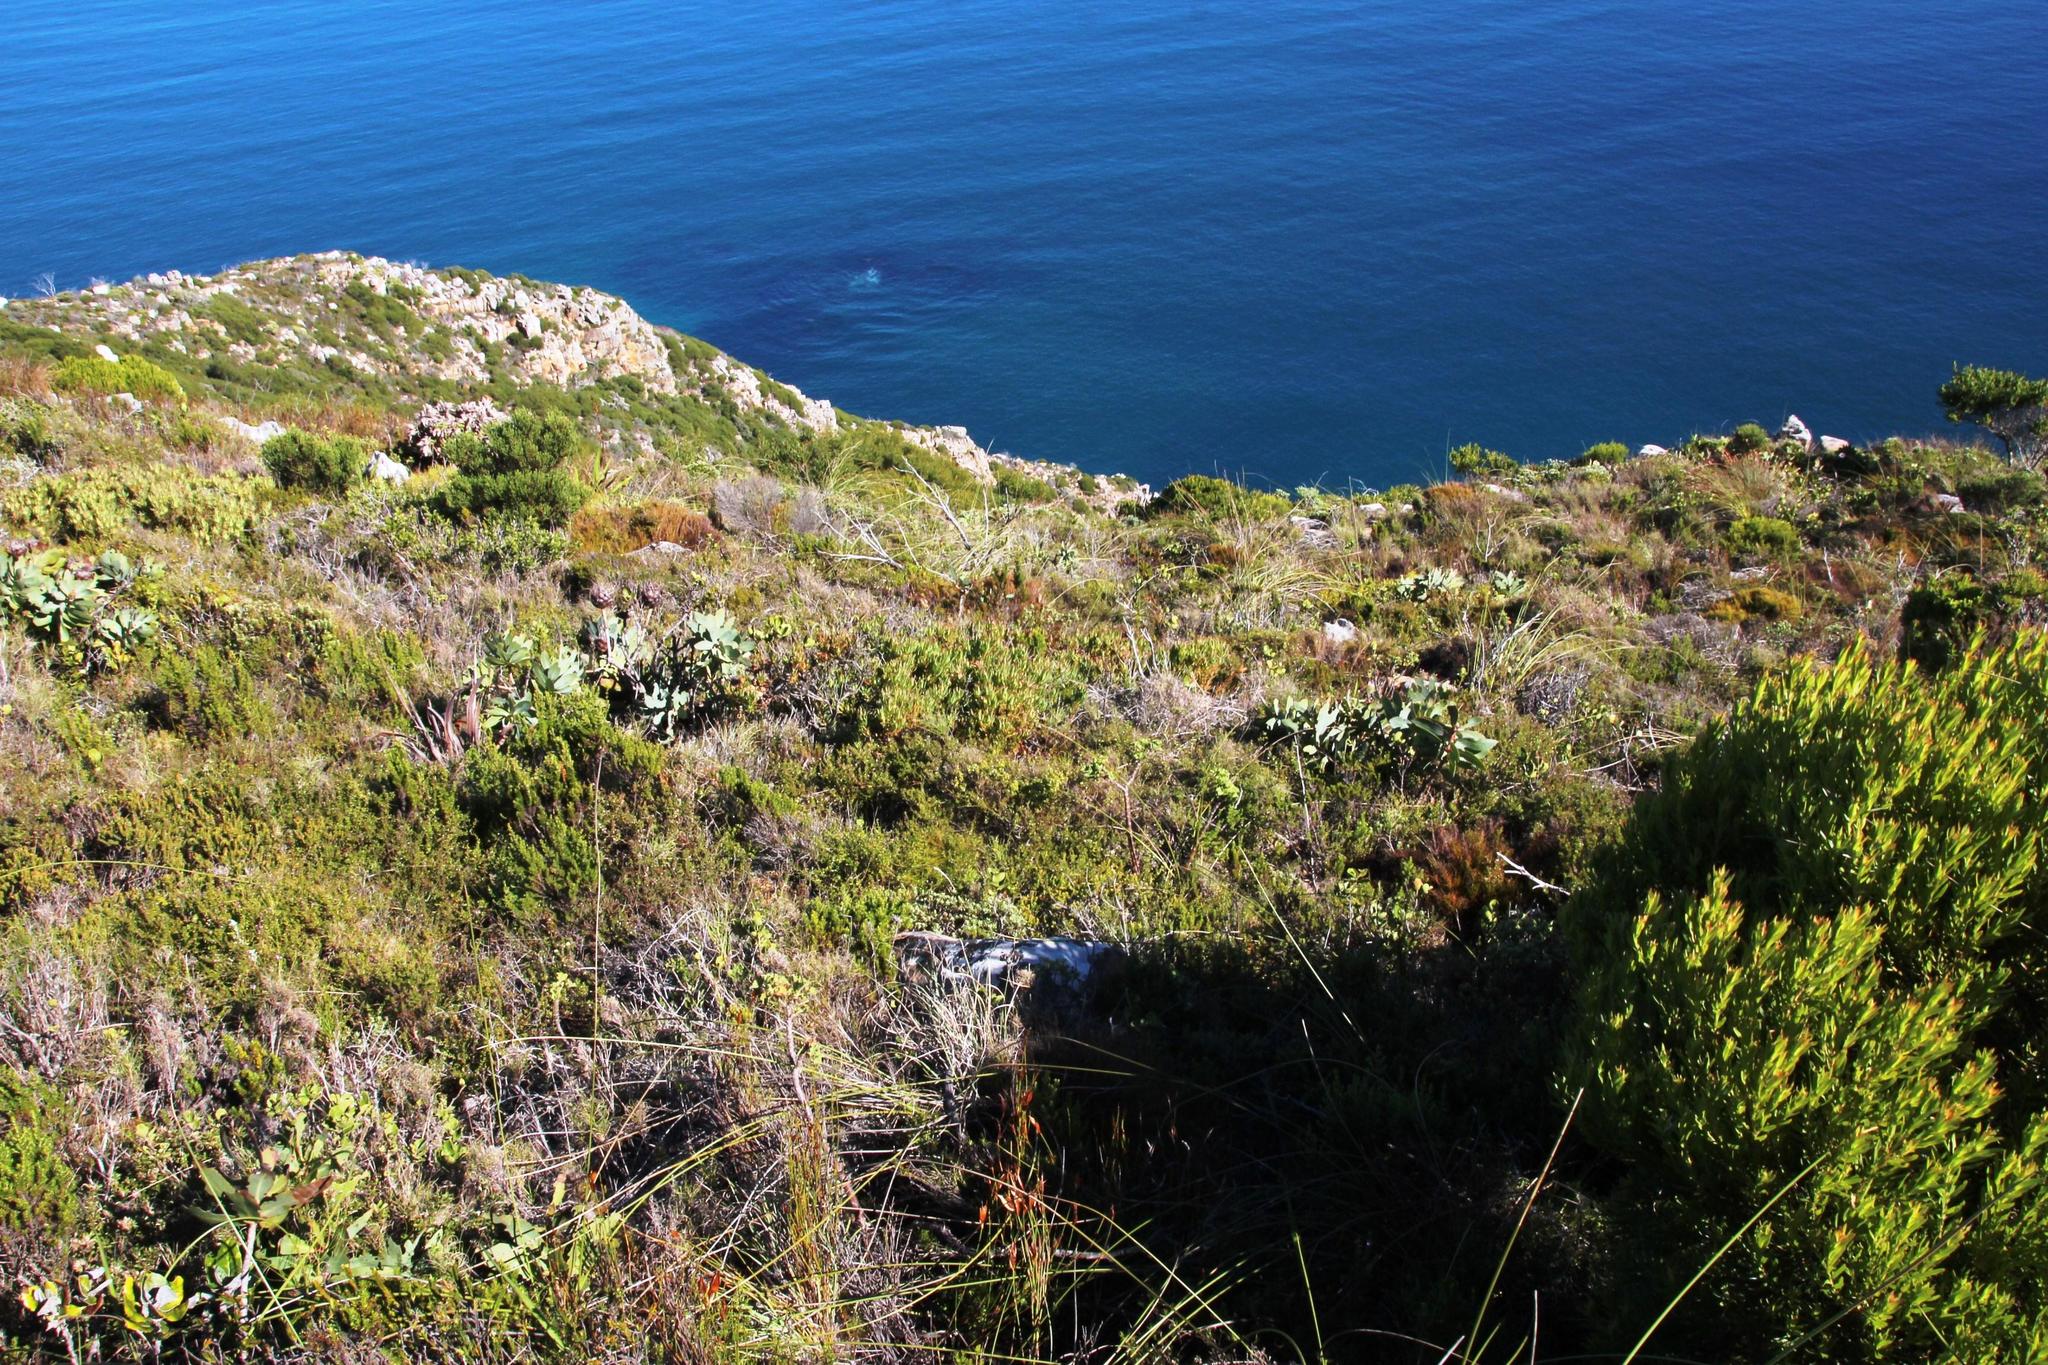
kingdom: Plantae
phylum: Tracheophyta
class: Magnoliopsida
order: Proteales
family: Proteaceae
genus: Protea
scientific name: Protea nitida
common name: Tree protea
